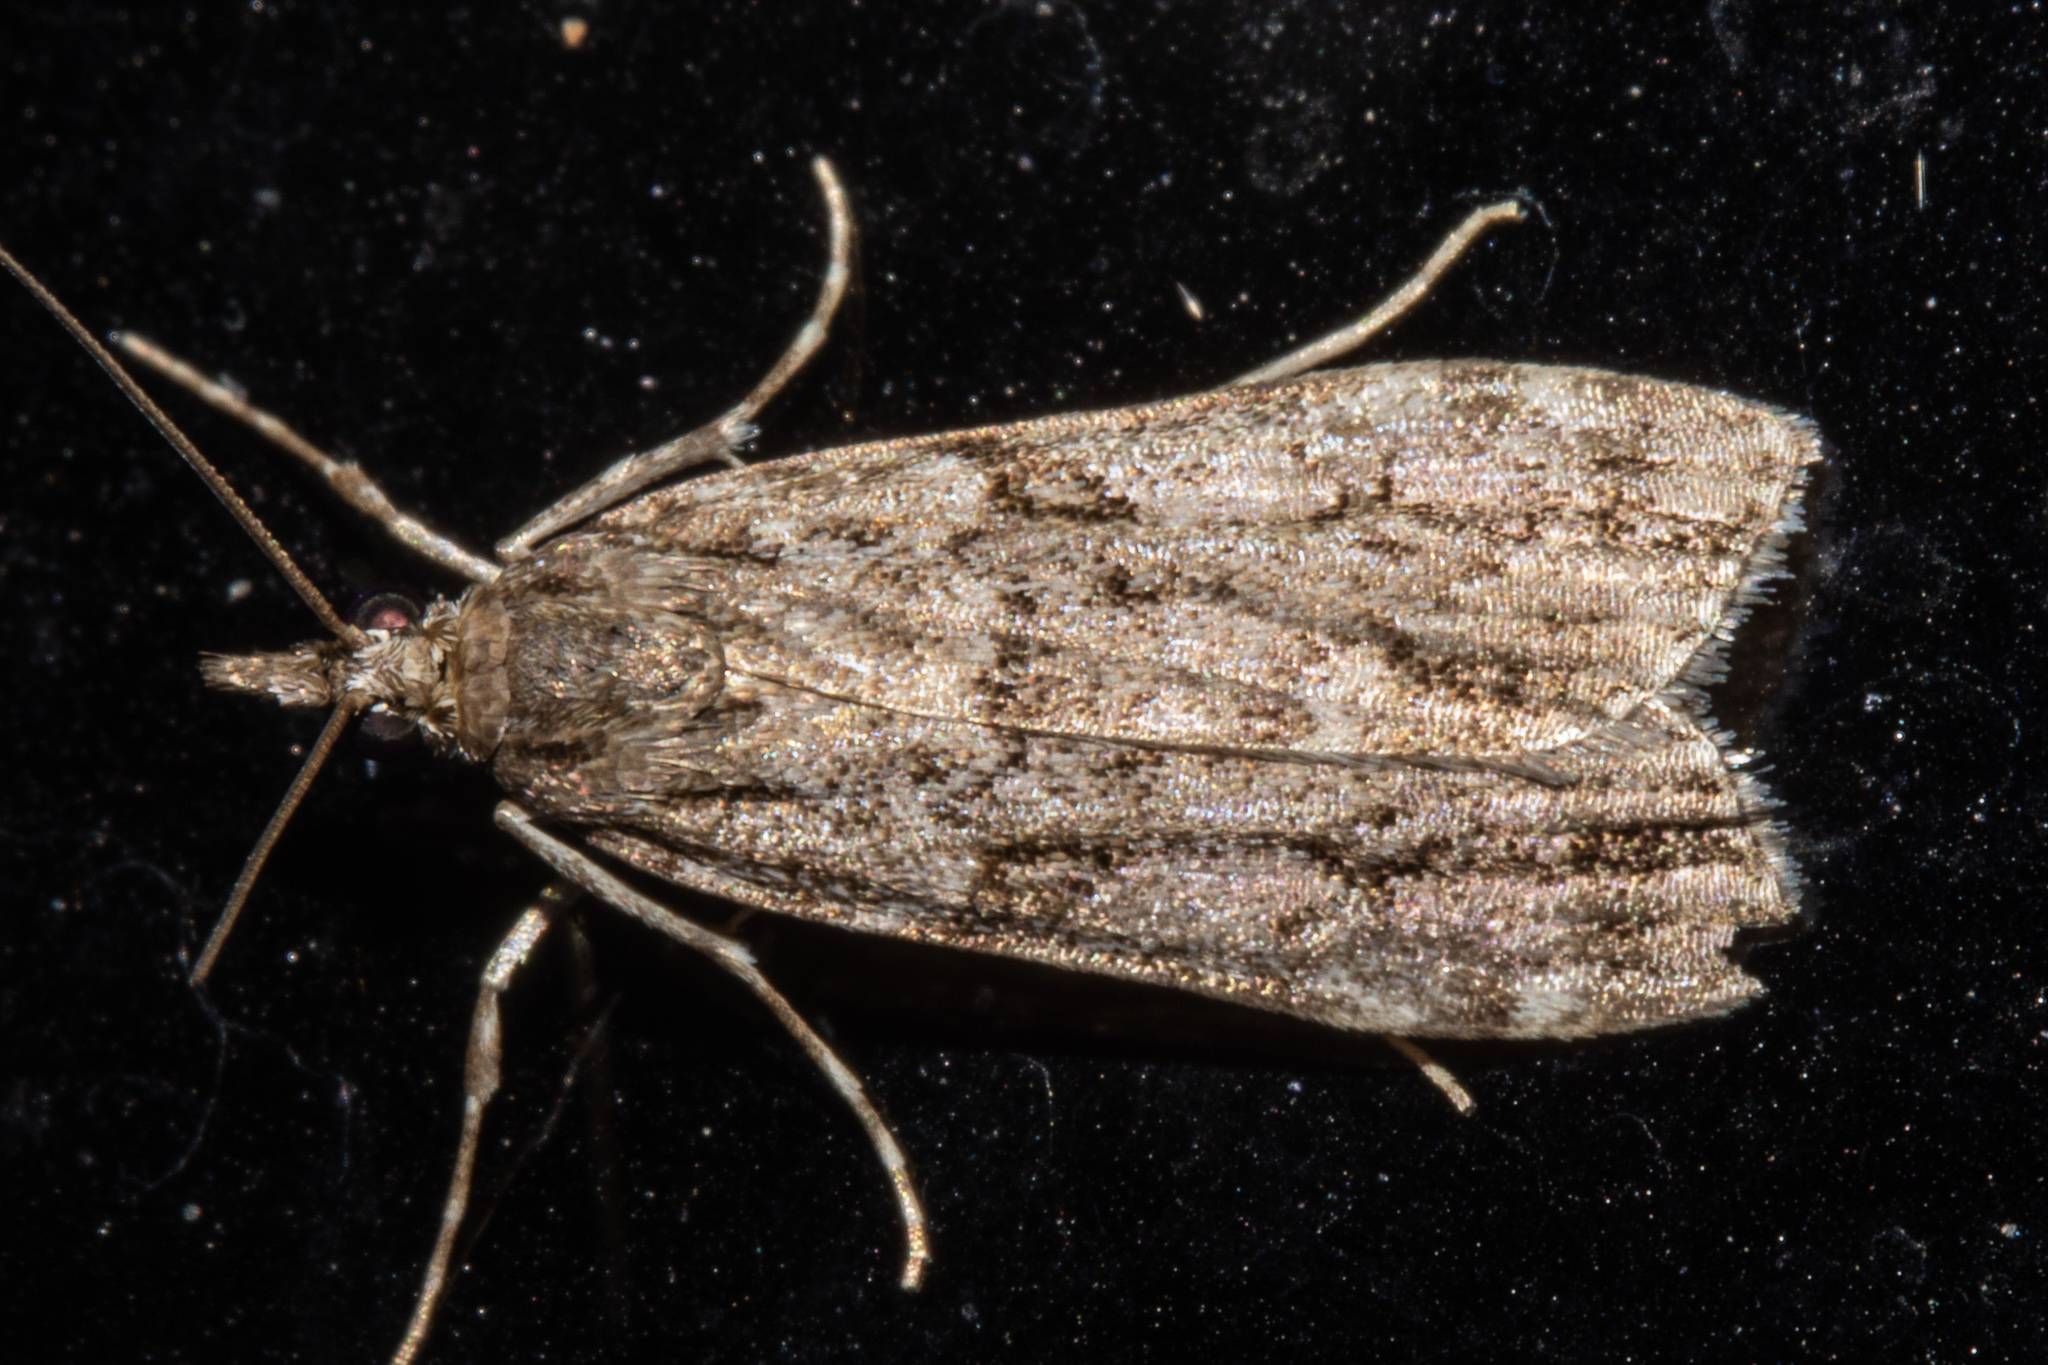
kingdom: Animalia
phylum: Arthropoda
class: Insecta
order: Lepidoptera
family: Crambidae
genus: Eudonia
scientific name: Eudonia cymatias
